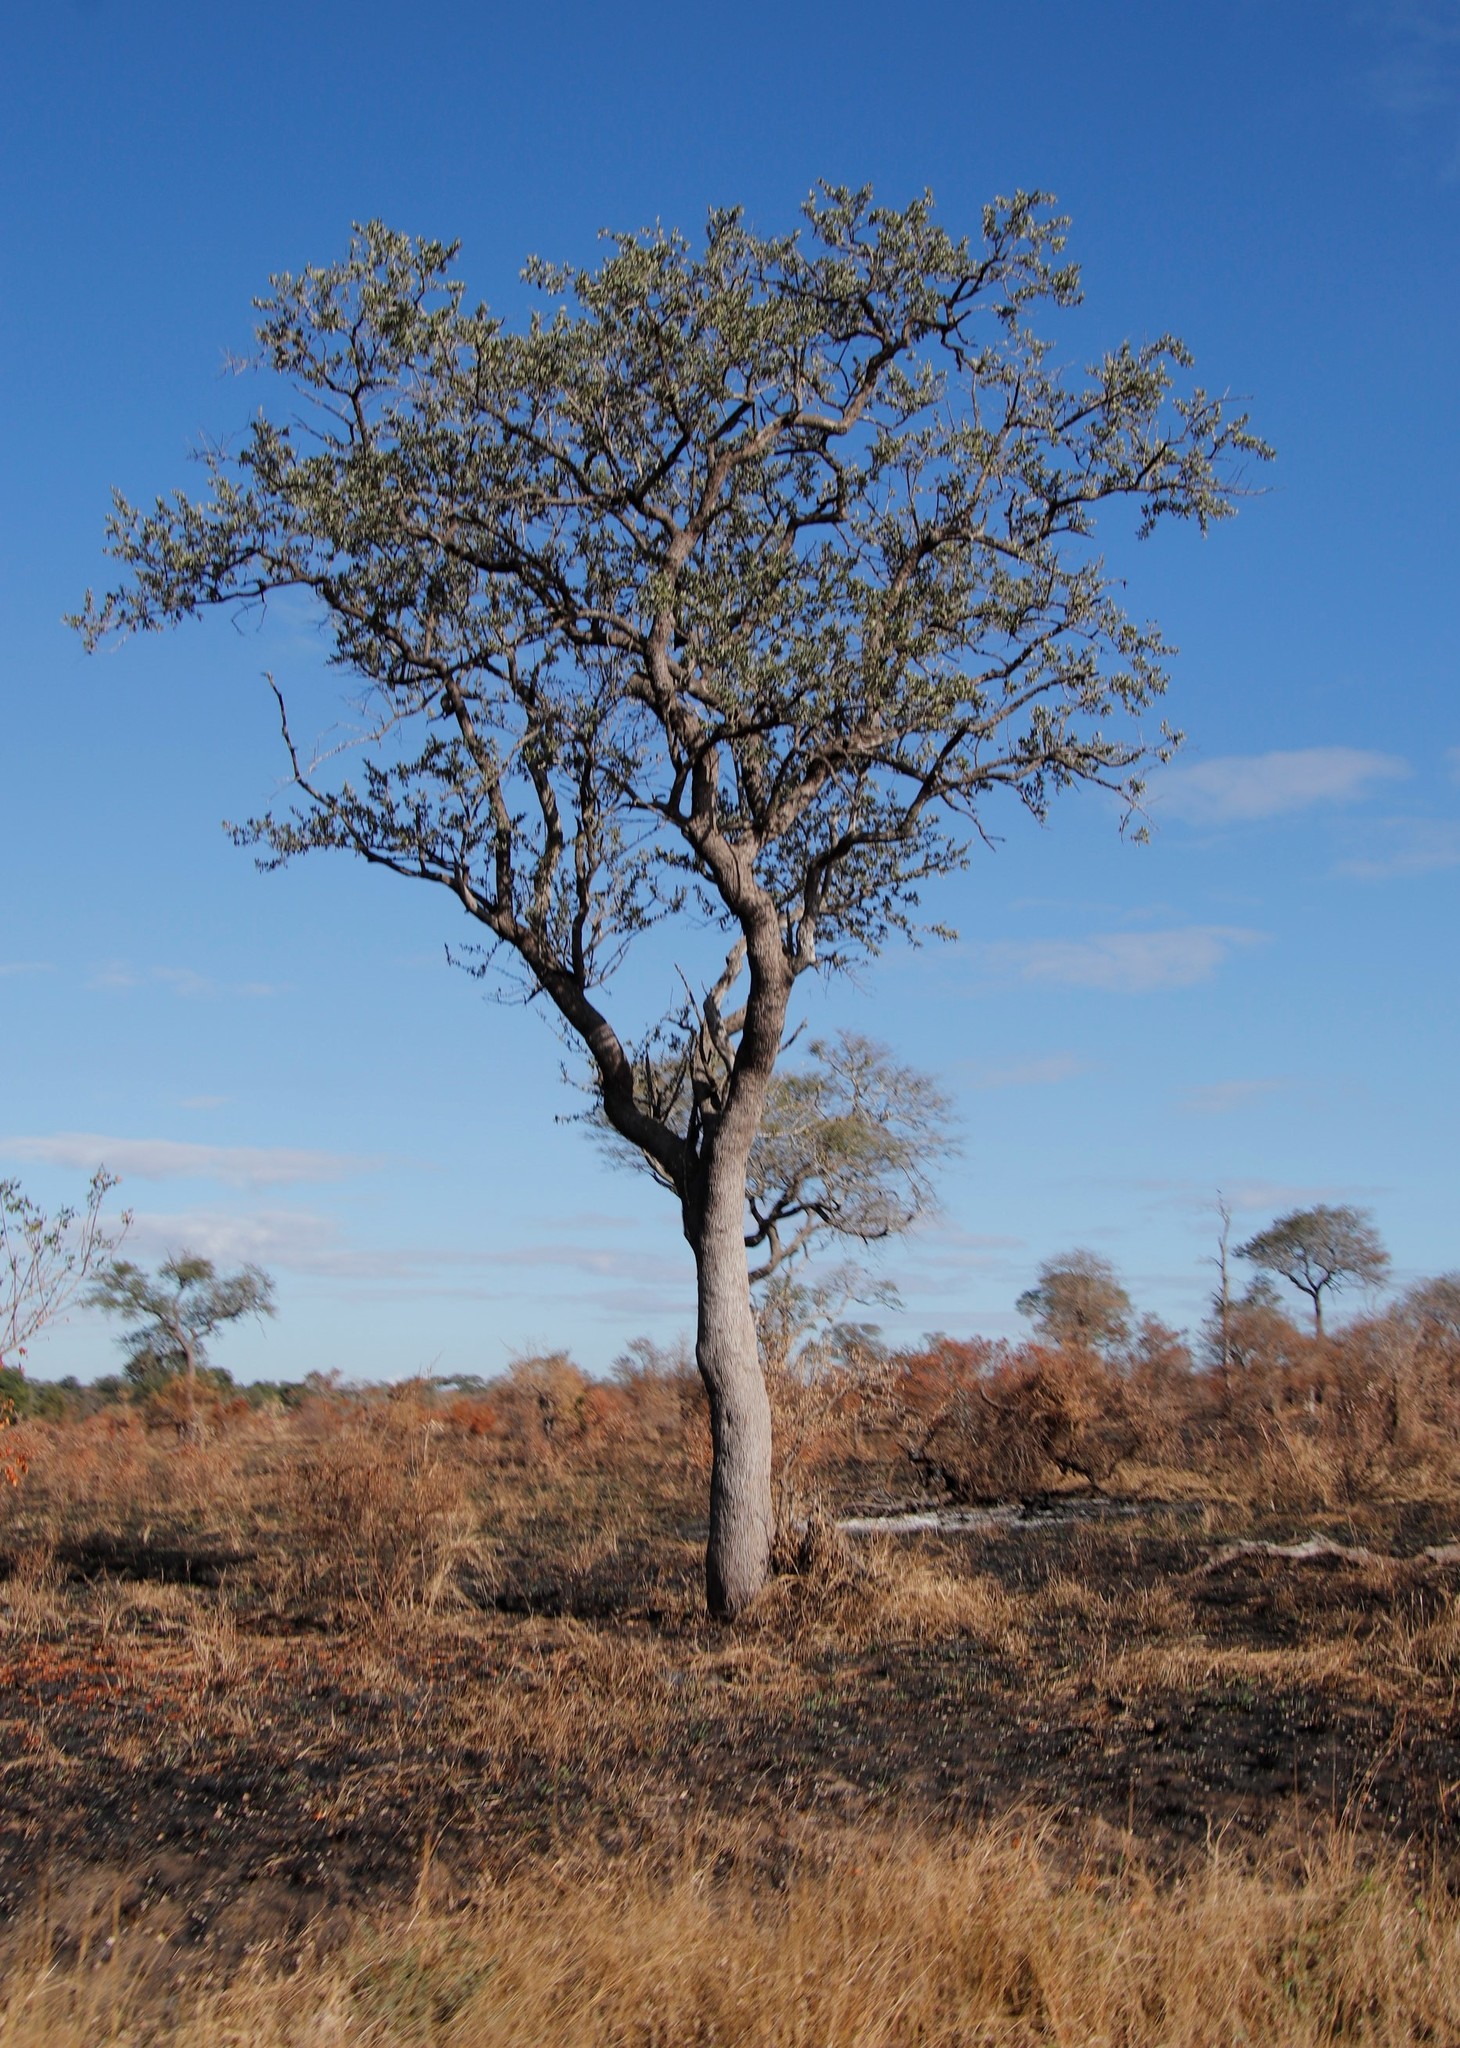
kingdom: Plantae
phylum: Tracheophyta
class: Magnoliopsida
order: Myrtales
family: Combretaceae
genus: Combretum
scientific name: Combretum imberbe
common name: Leadwood
